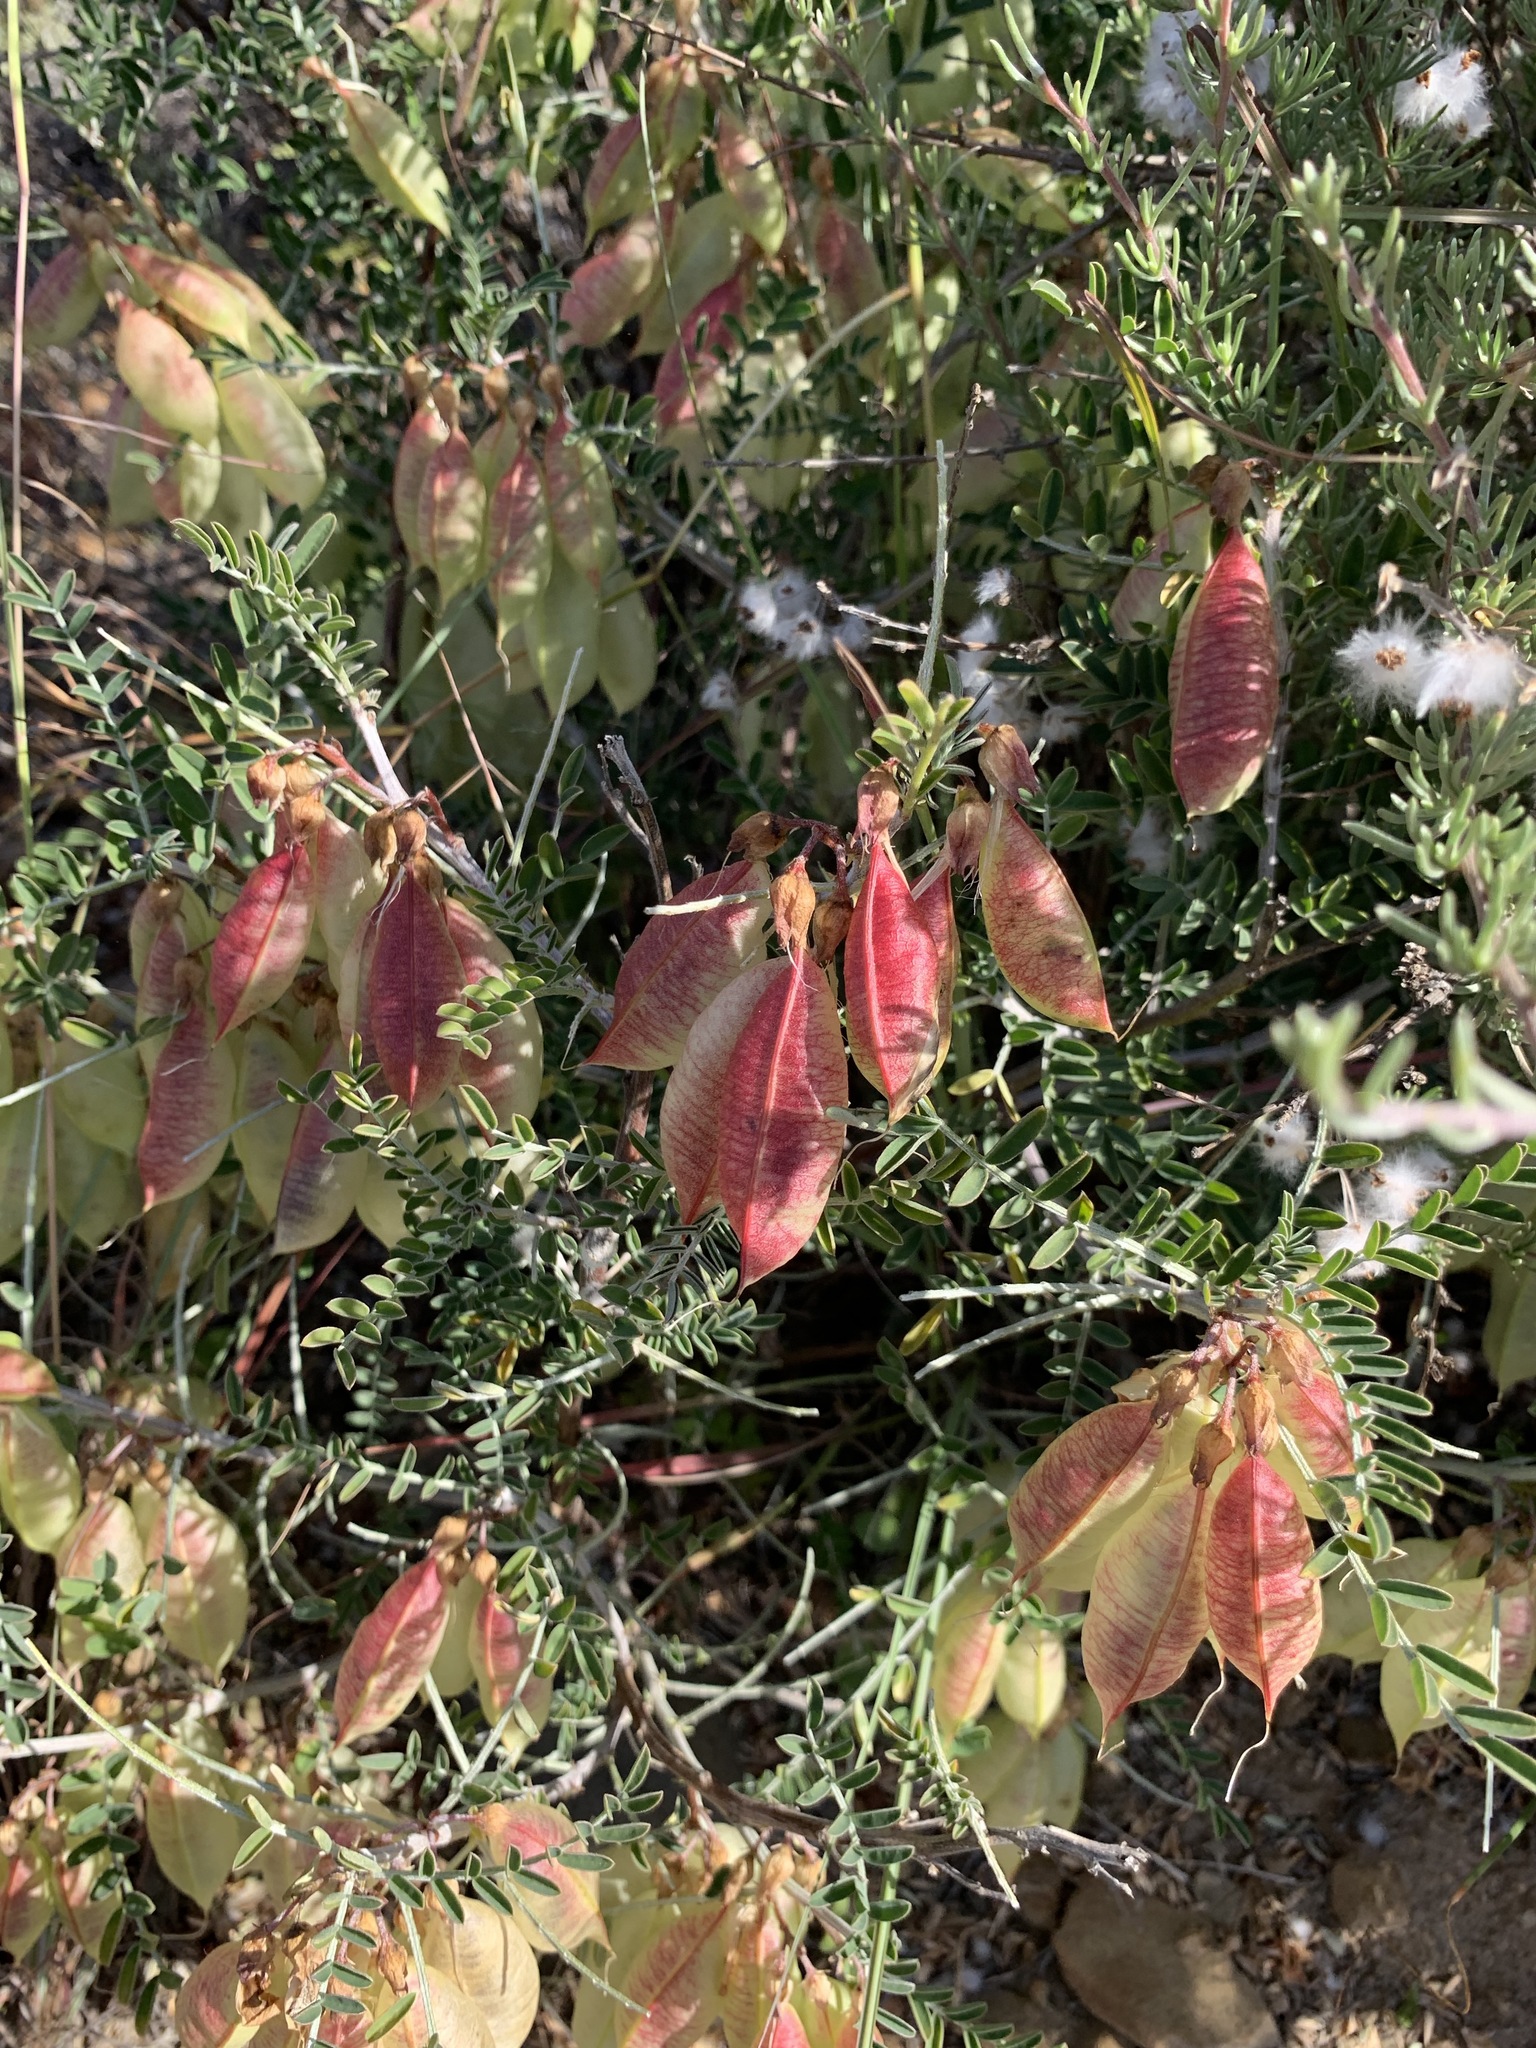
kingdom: Plantae
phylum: Tracheophyta
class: Magnoliopsida
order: Fabales
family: Fabaceae
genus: Lessertia
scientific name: Lessertia frutescens
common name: Balloon-pea
